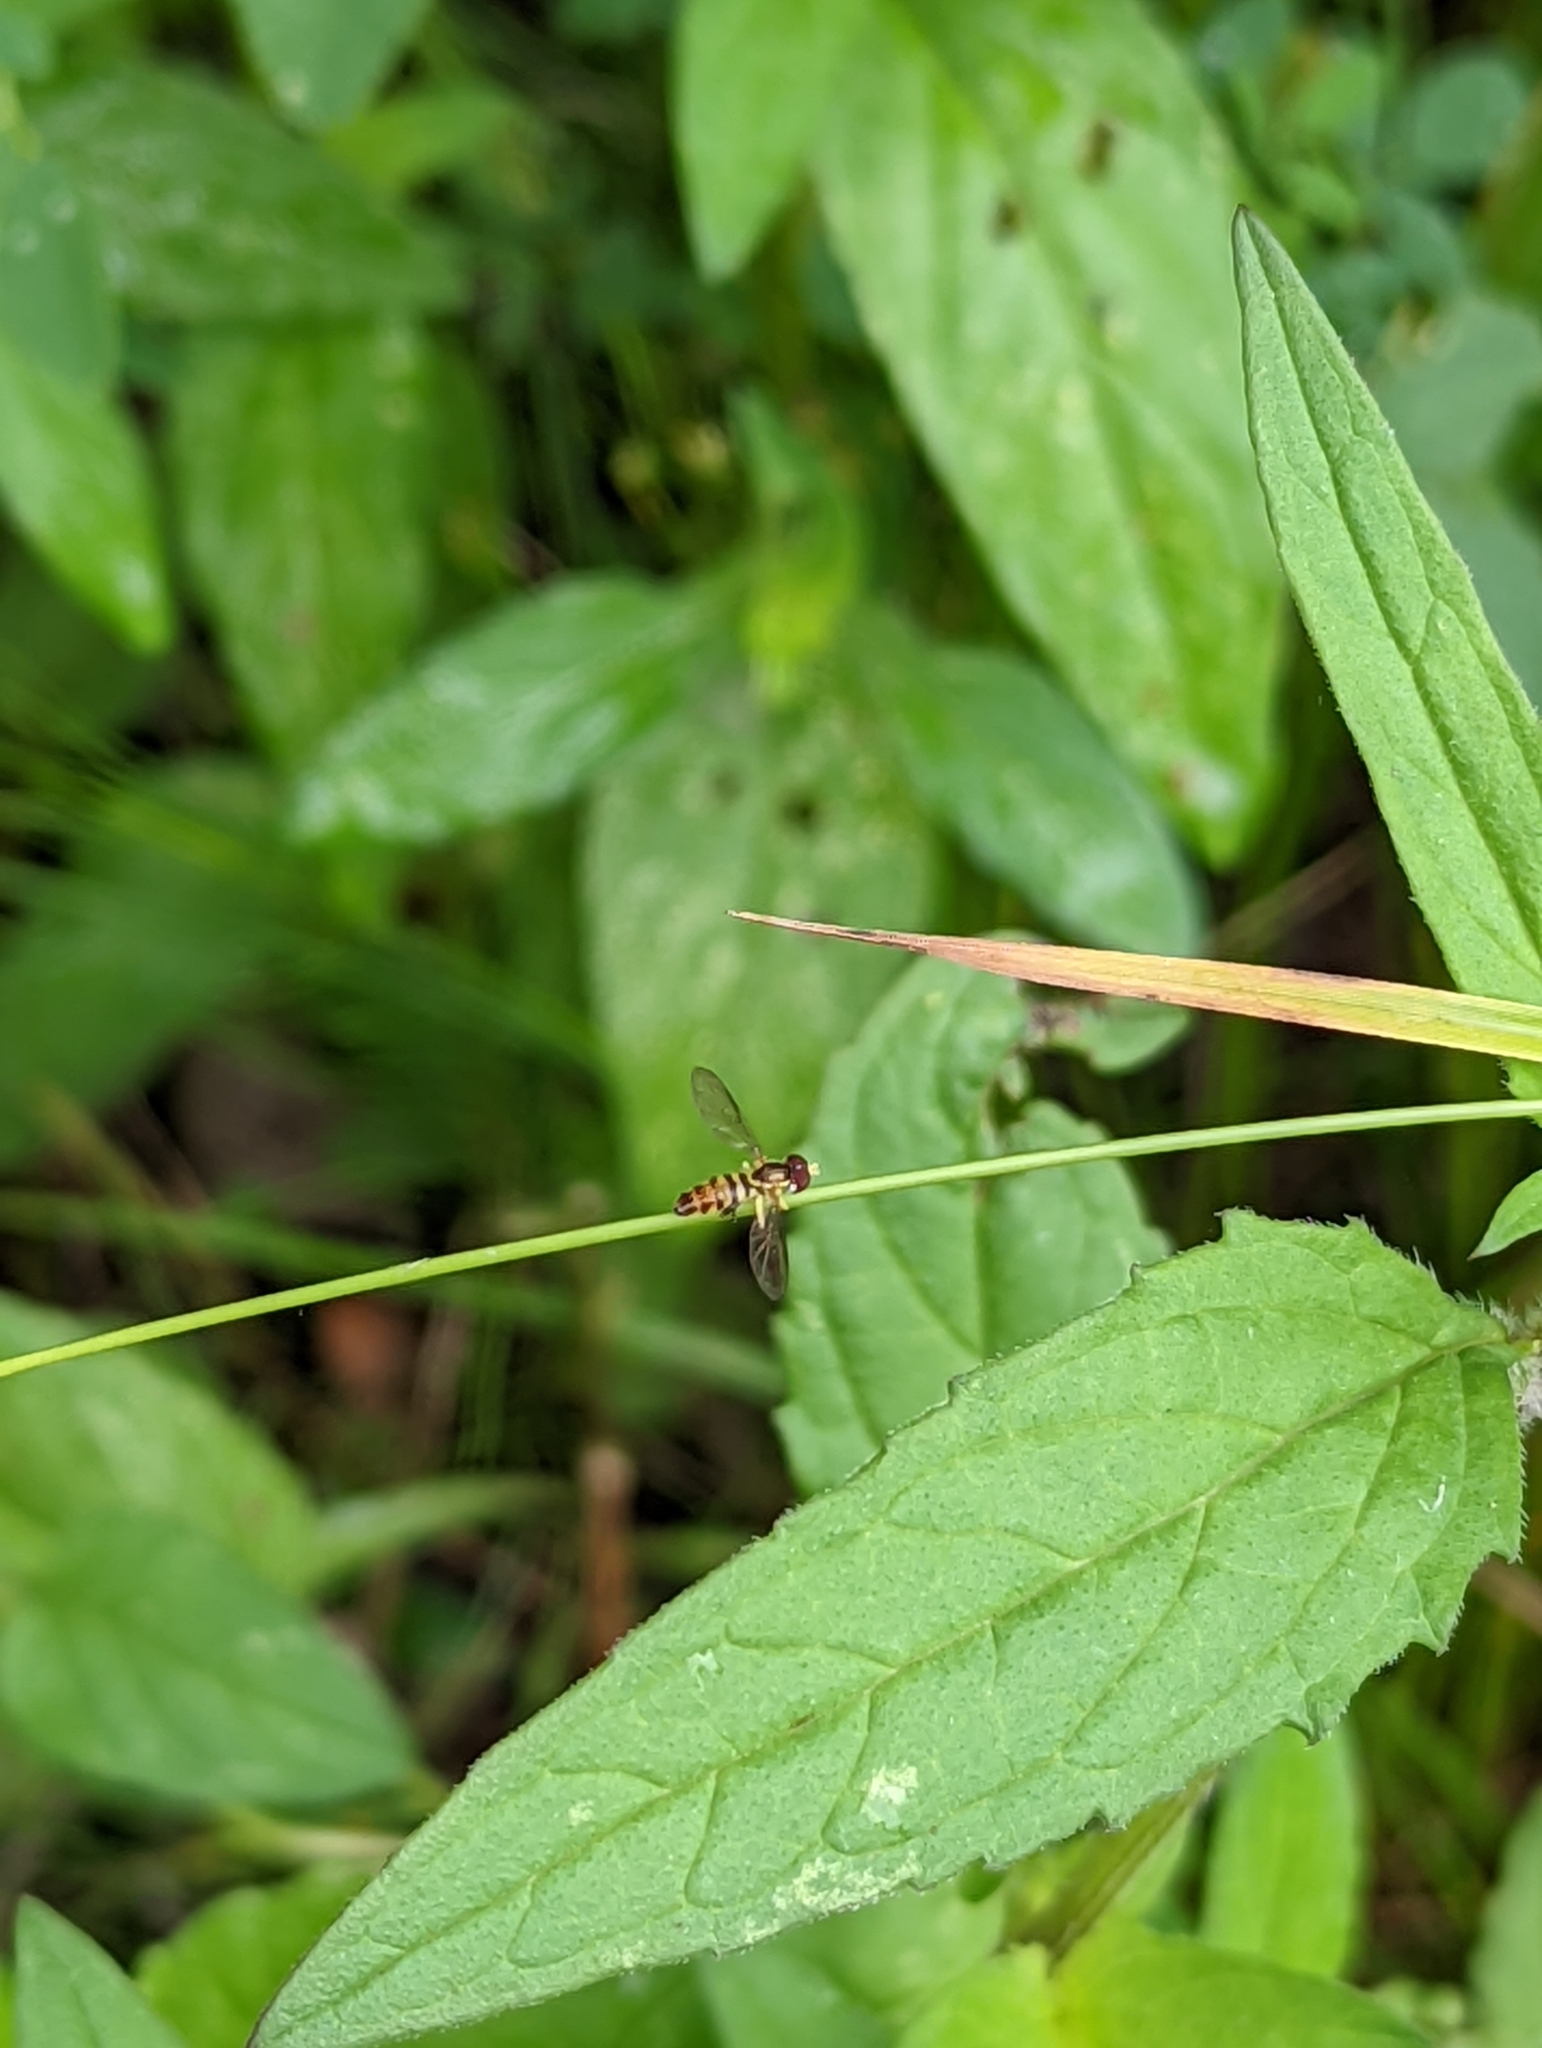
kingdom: Animalia
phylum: Arthropoda
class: Insecta
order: Diptera
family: Syrphidae
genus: Toxomerus
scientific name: Toxomerus geminatus
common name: Eastern calligrapher
